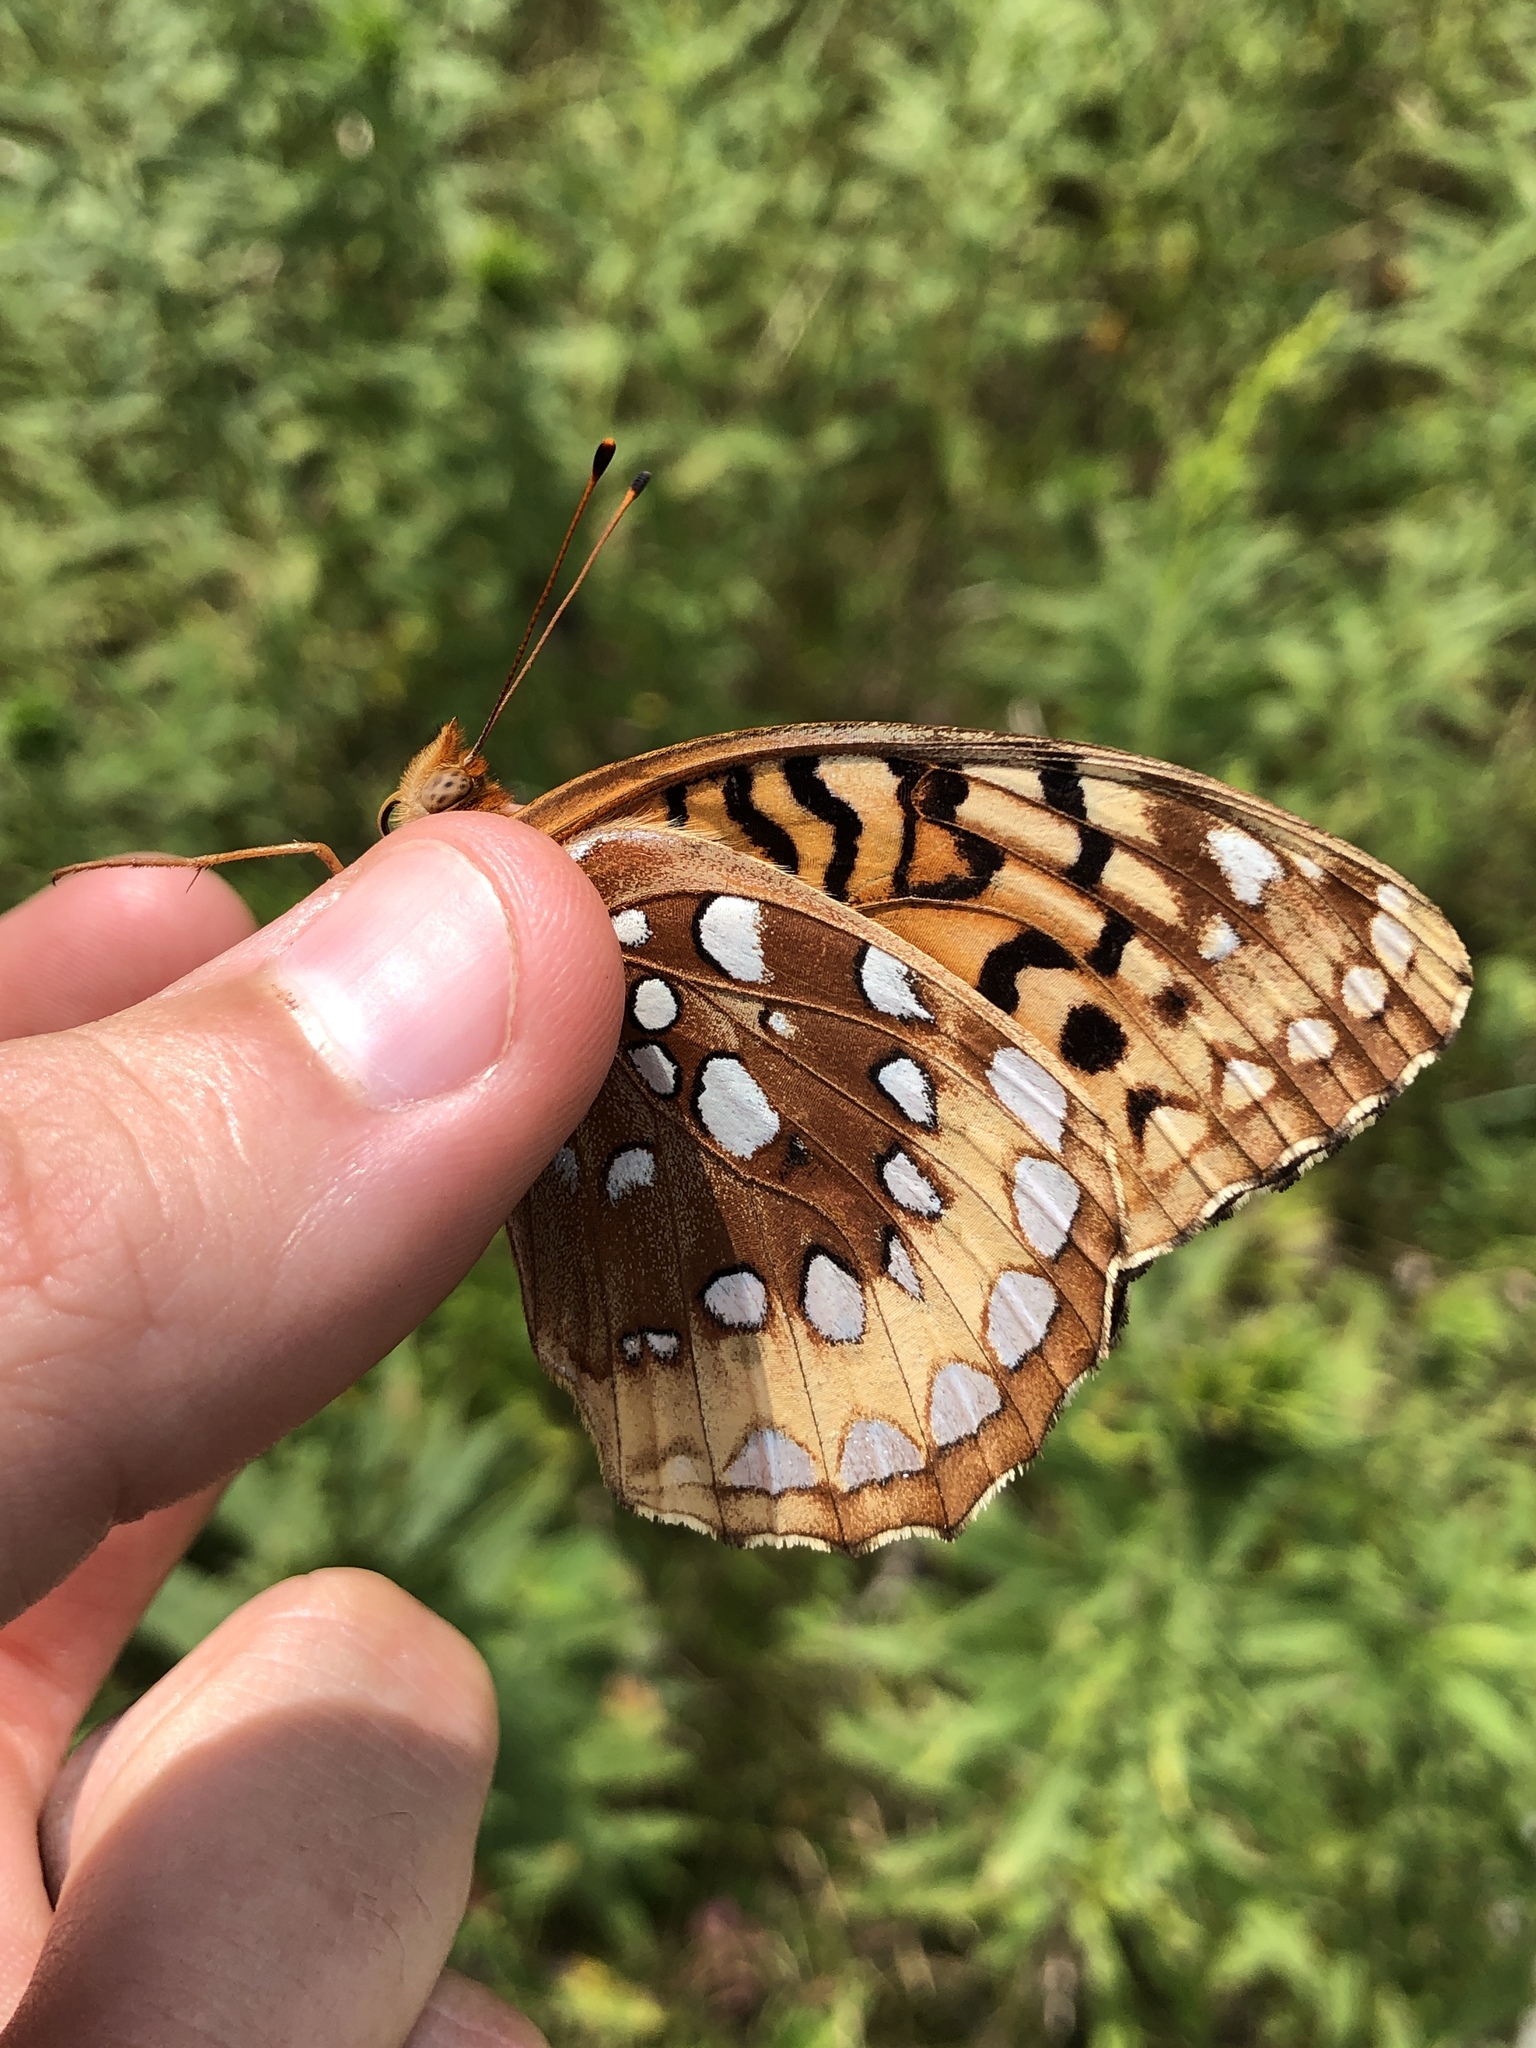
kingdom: Animalia
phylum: Arthropoda
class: Insecta
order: Lepidoptera
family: Nymphalidae
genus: Speyeria
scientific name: Speyeria cybele
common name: Great spangled fritillary
